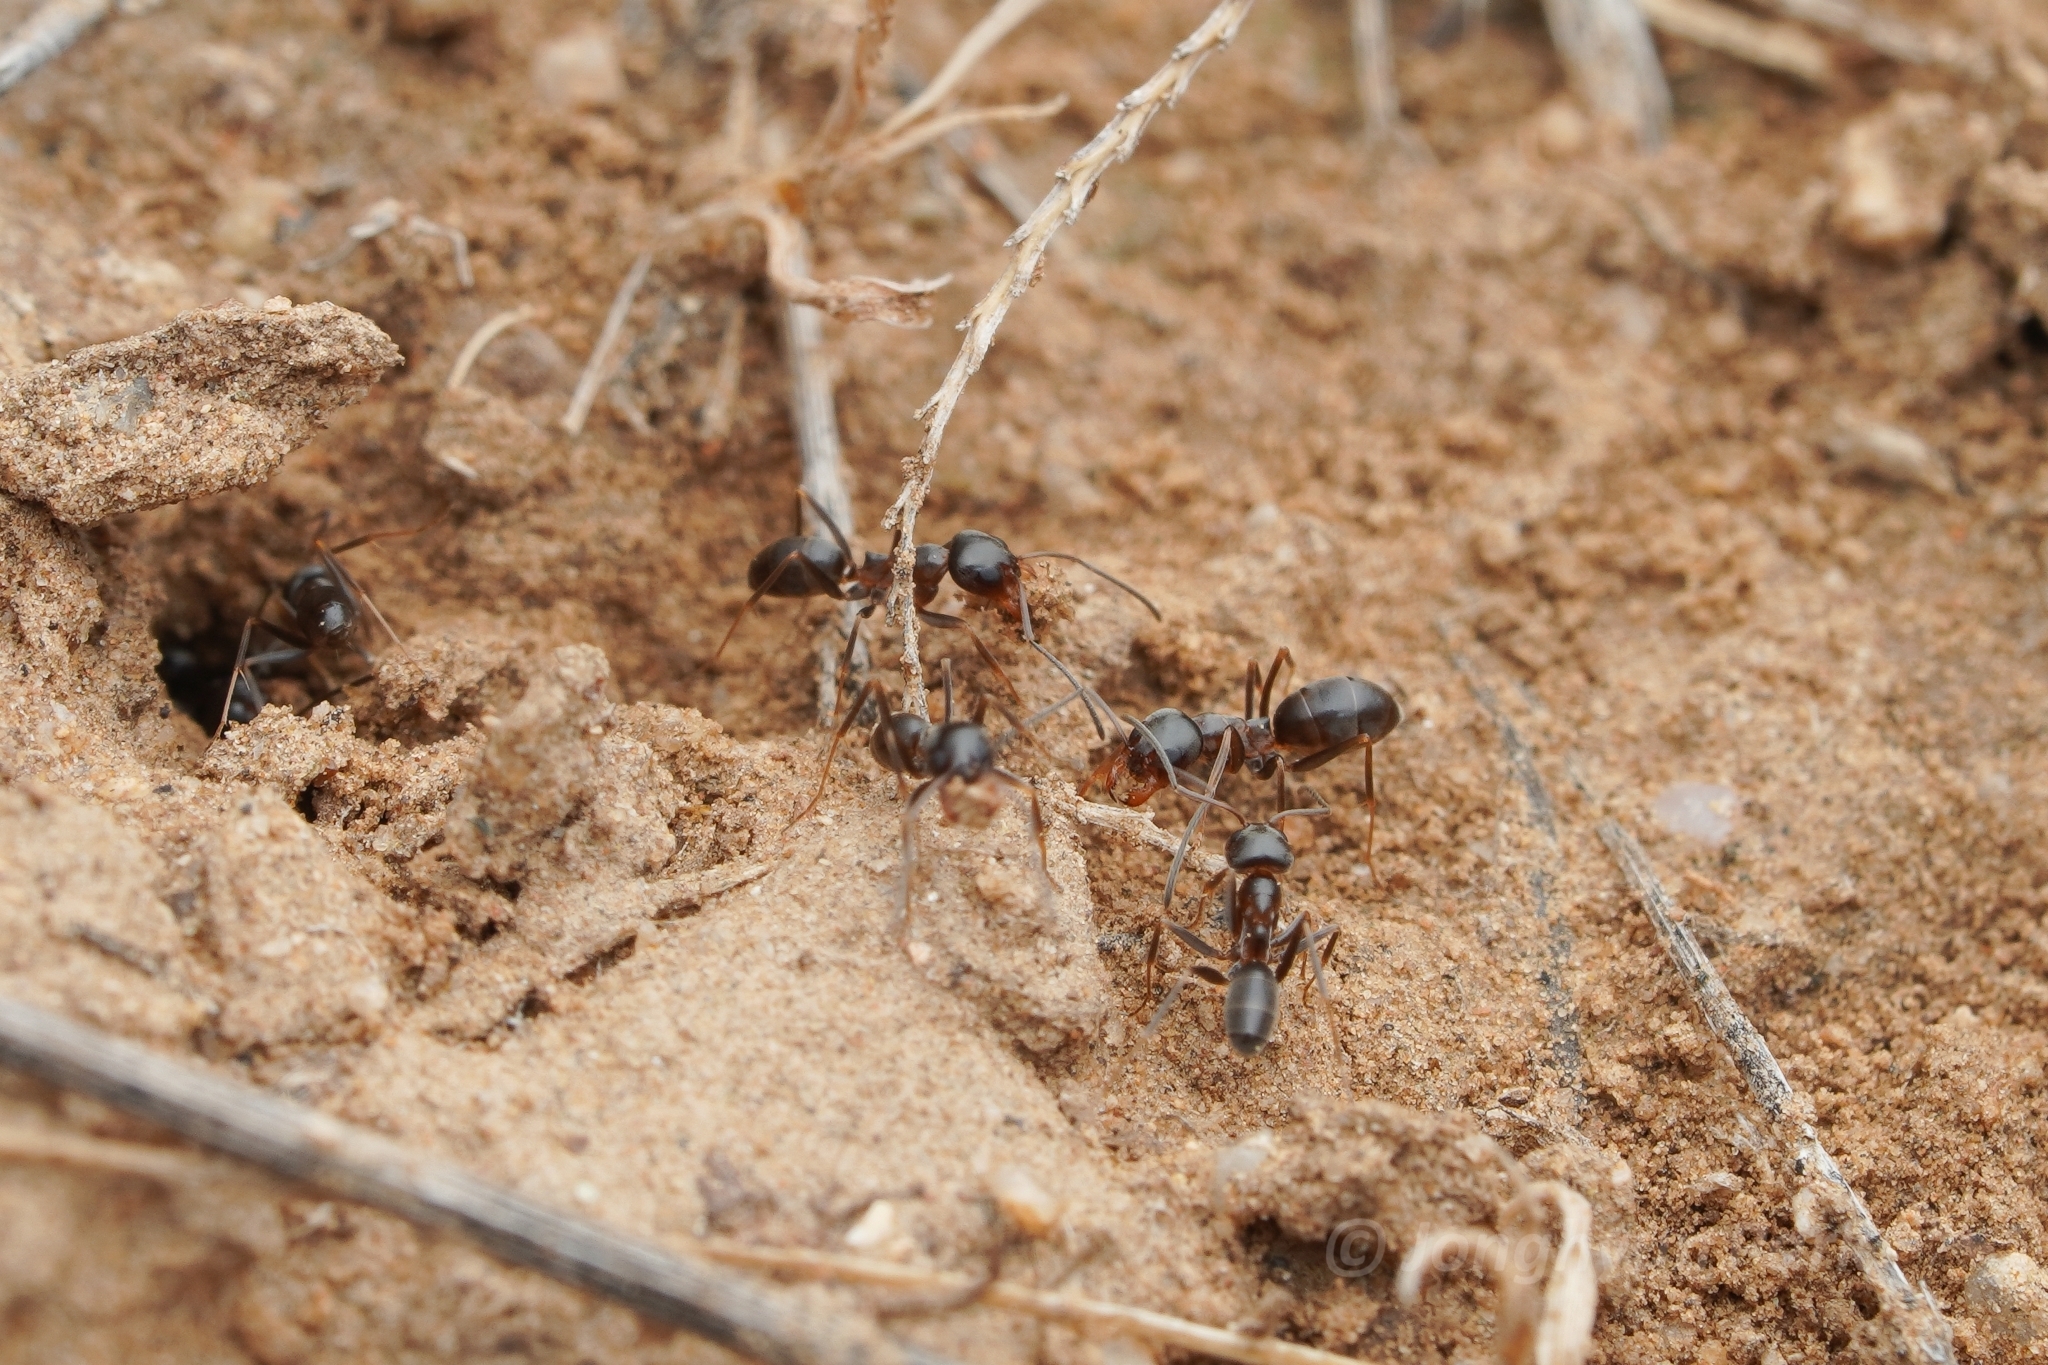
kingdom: Animalia
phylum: Arthropoda
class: Insecta
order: Hymenoptera
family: Formicidae
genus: Dorymyrmex
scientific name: Dorymyrmex insanus
